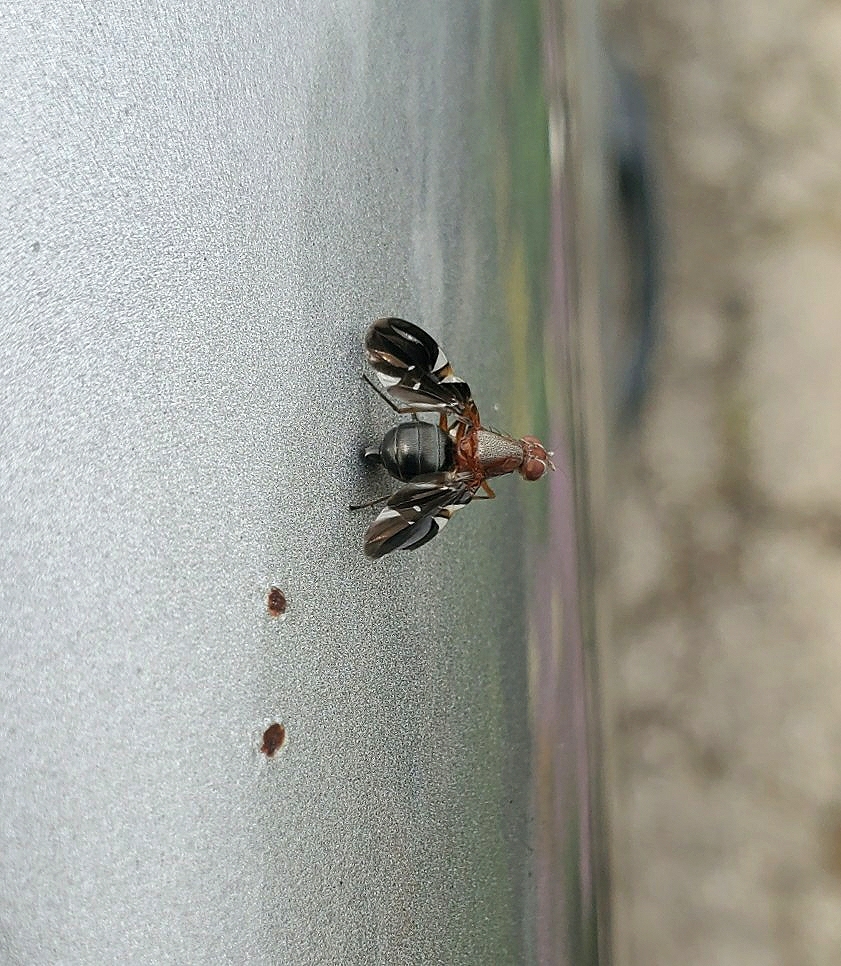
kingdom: Animalia
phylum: Arthropoda
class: Insecta
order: Diptera
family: Ulidiidae
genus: Delphinia
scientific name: Delphinia picta
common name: Common picture-winged fly
